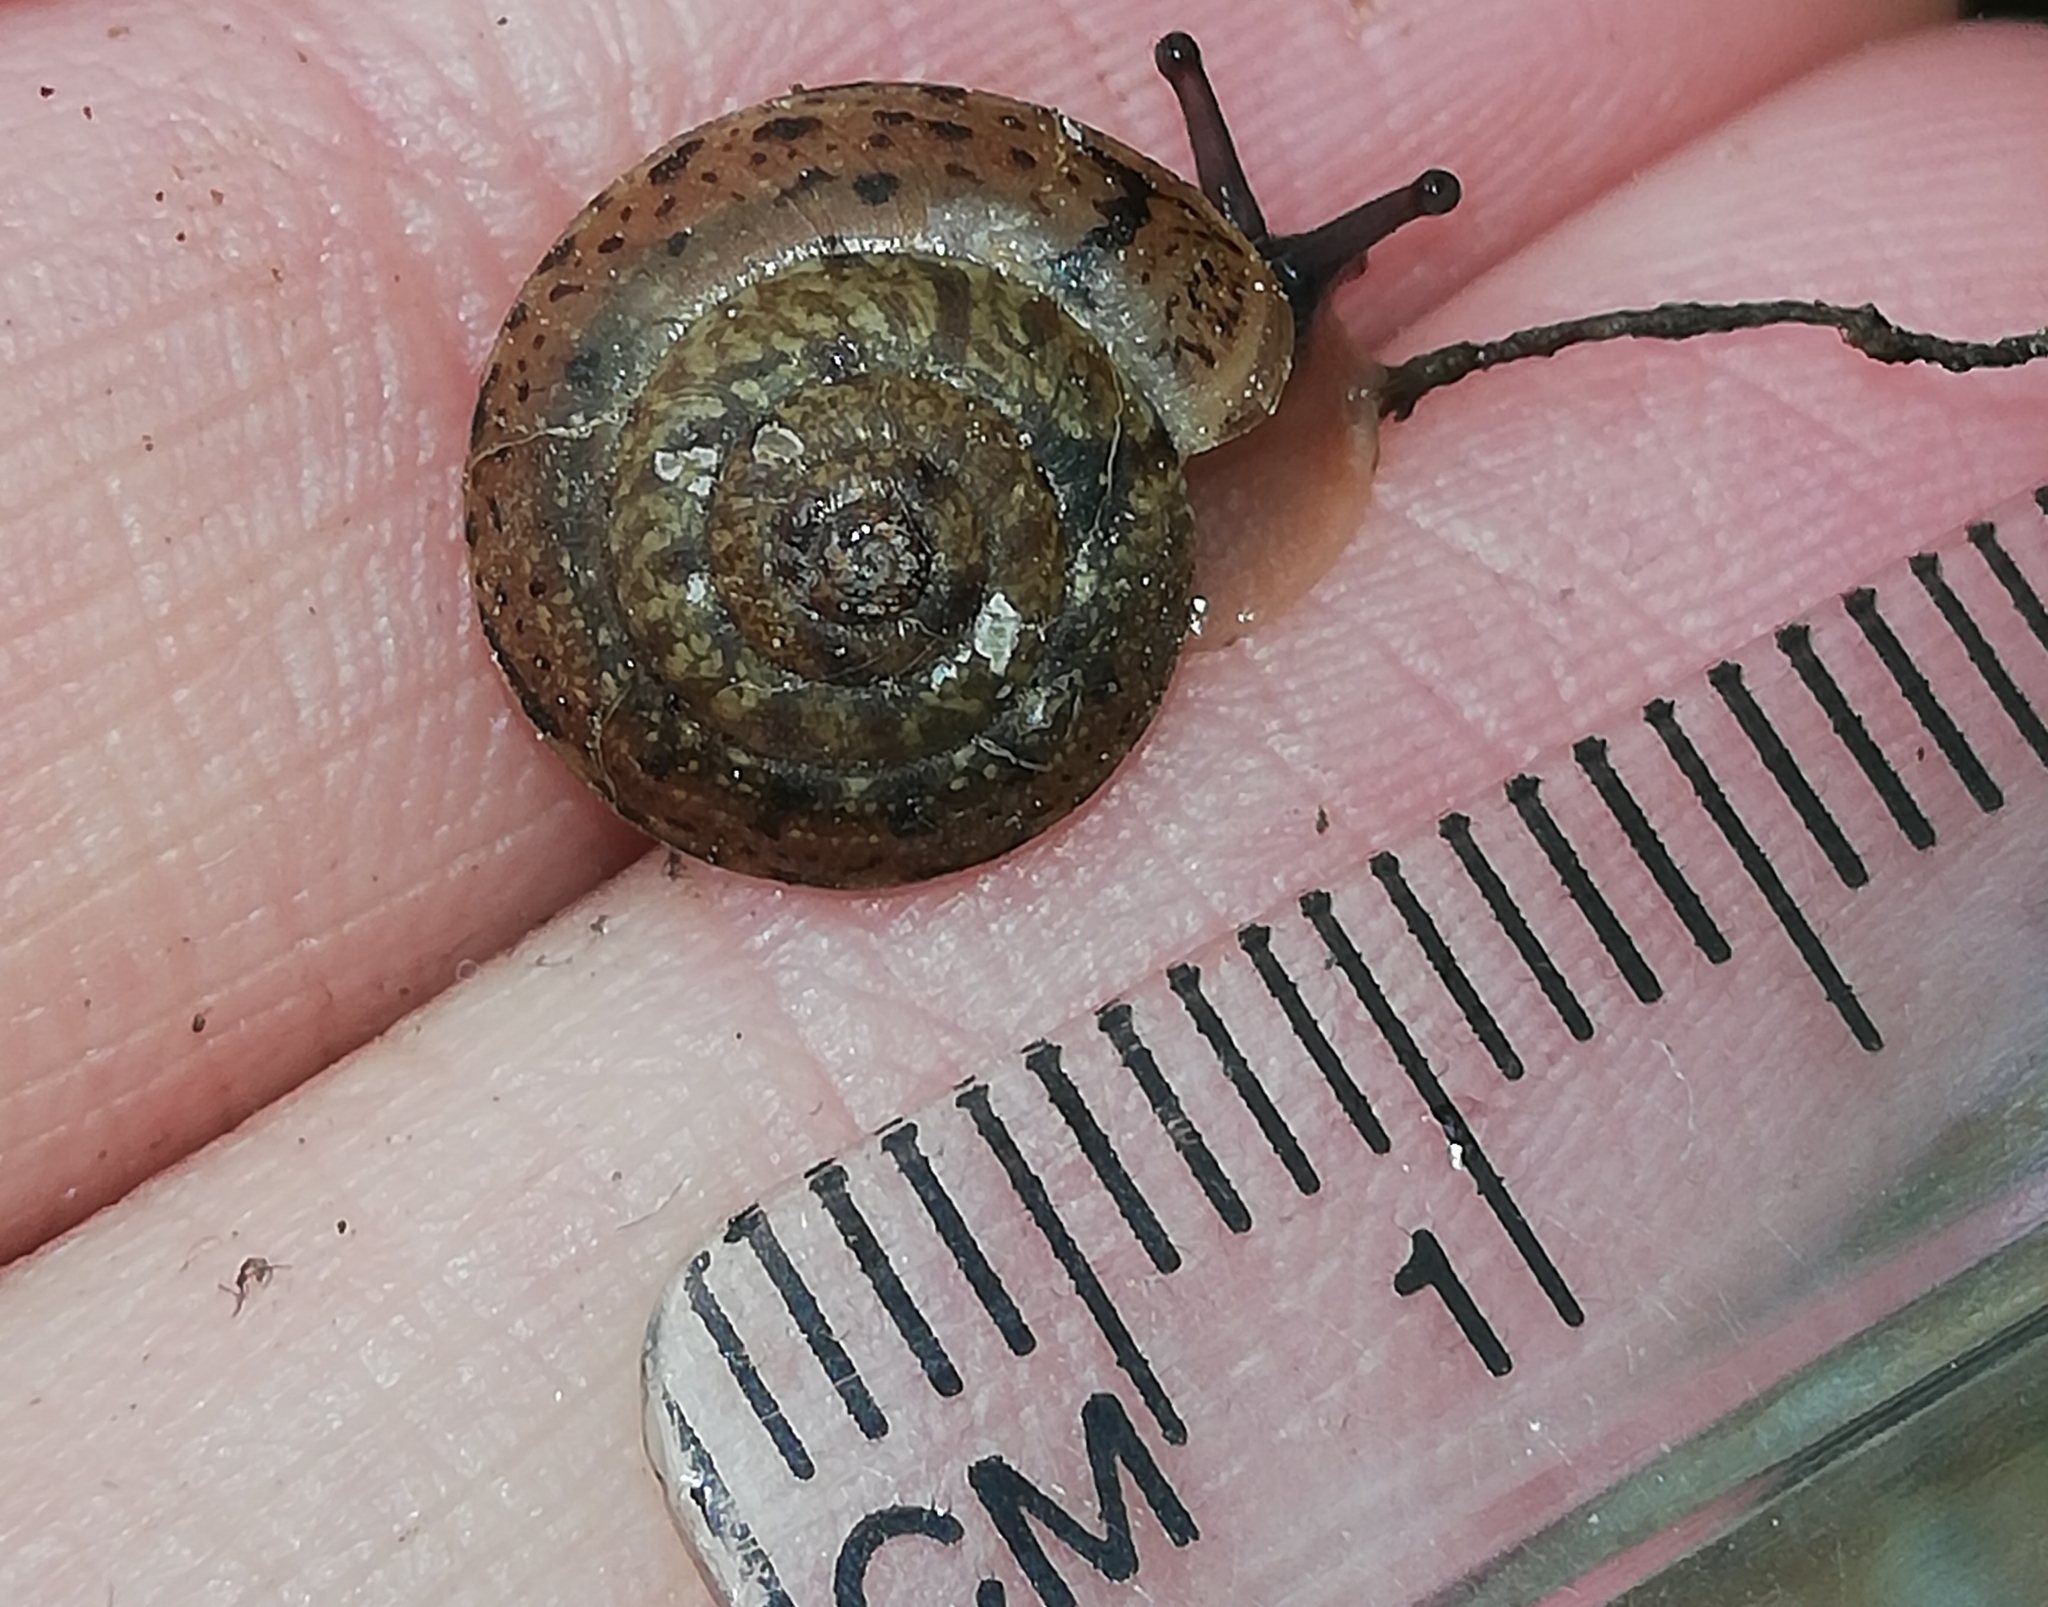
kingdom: Animalia
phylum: Mollusca
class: Gastropoda
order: Stylommatophora
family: Hygromiidae
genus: Monachoides
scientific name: Monachoides incarnatus
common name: Incarnate snail
